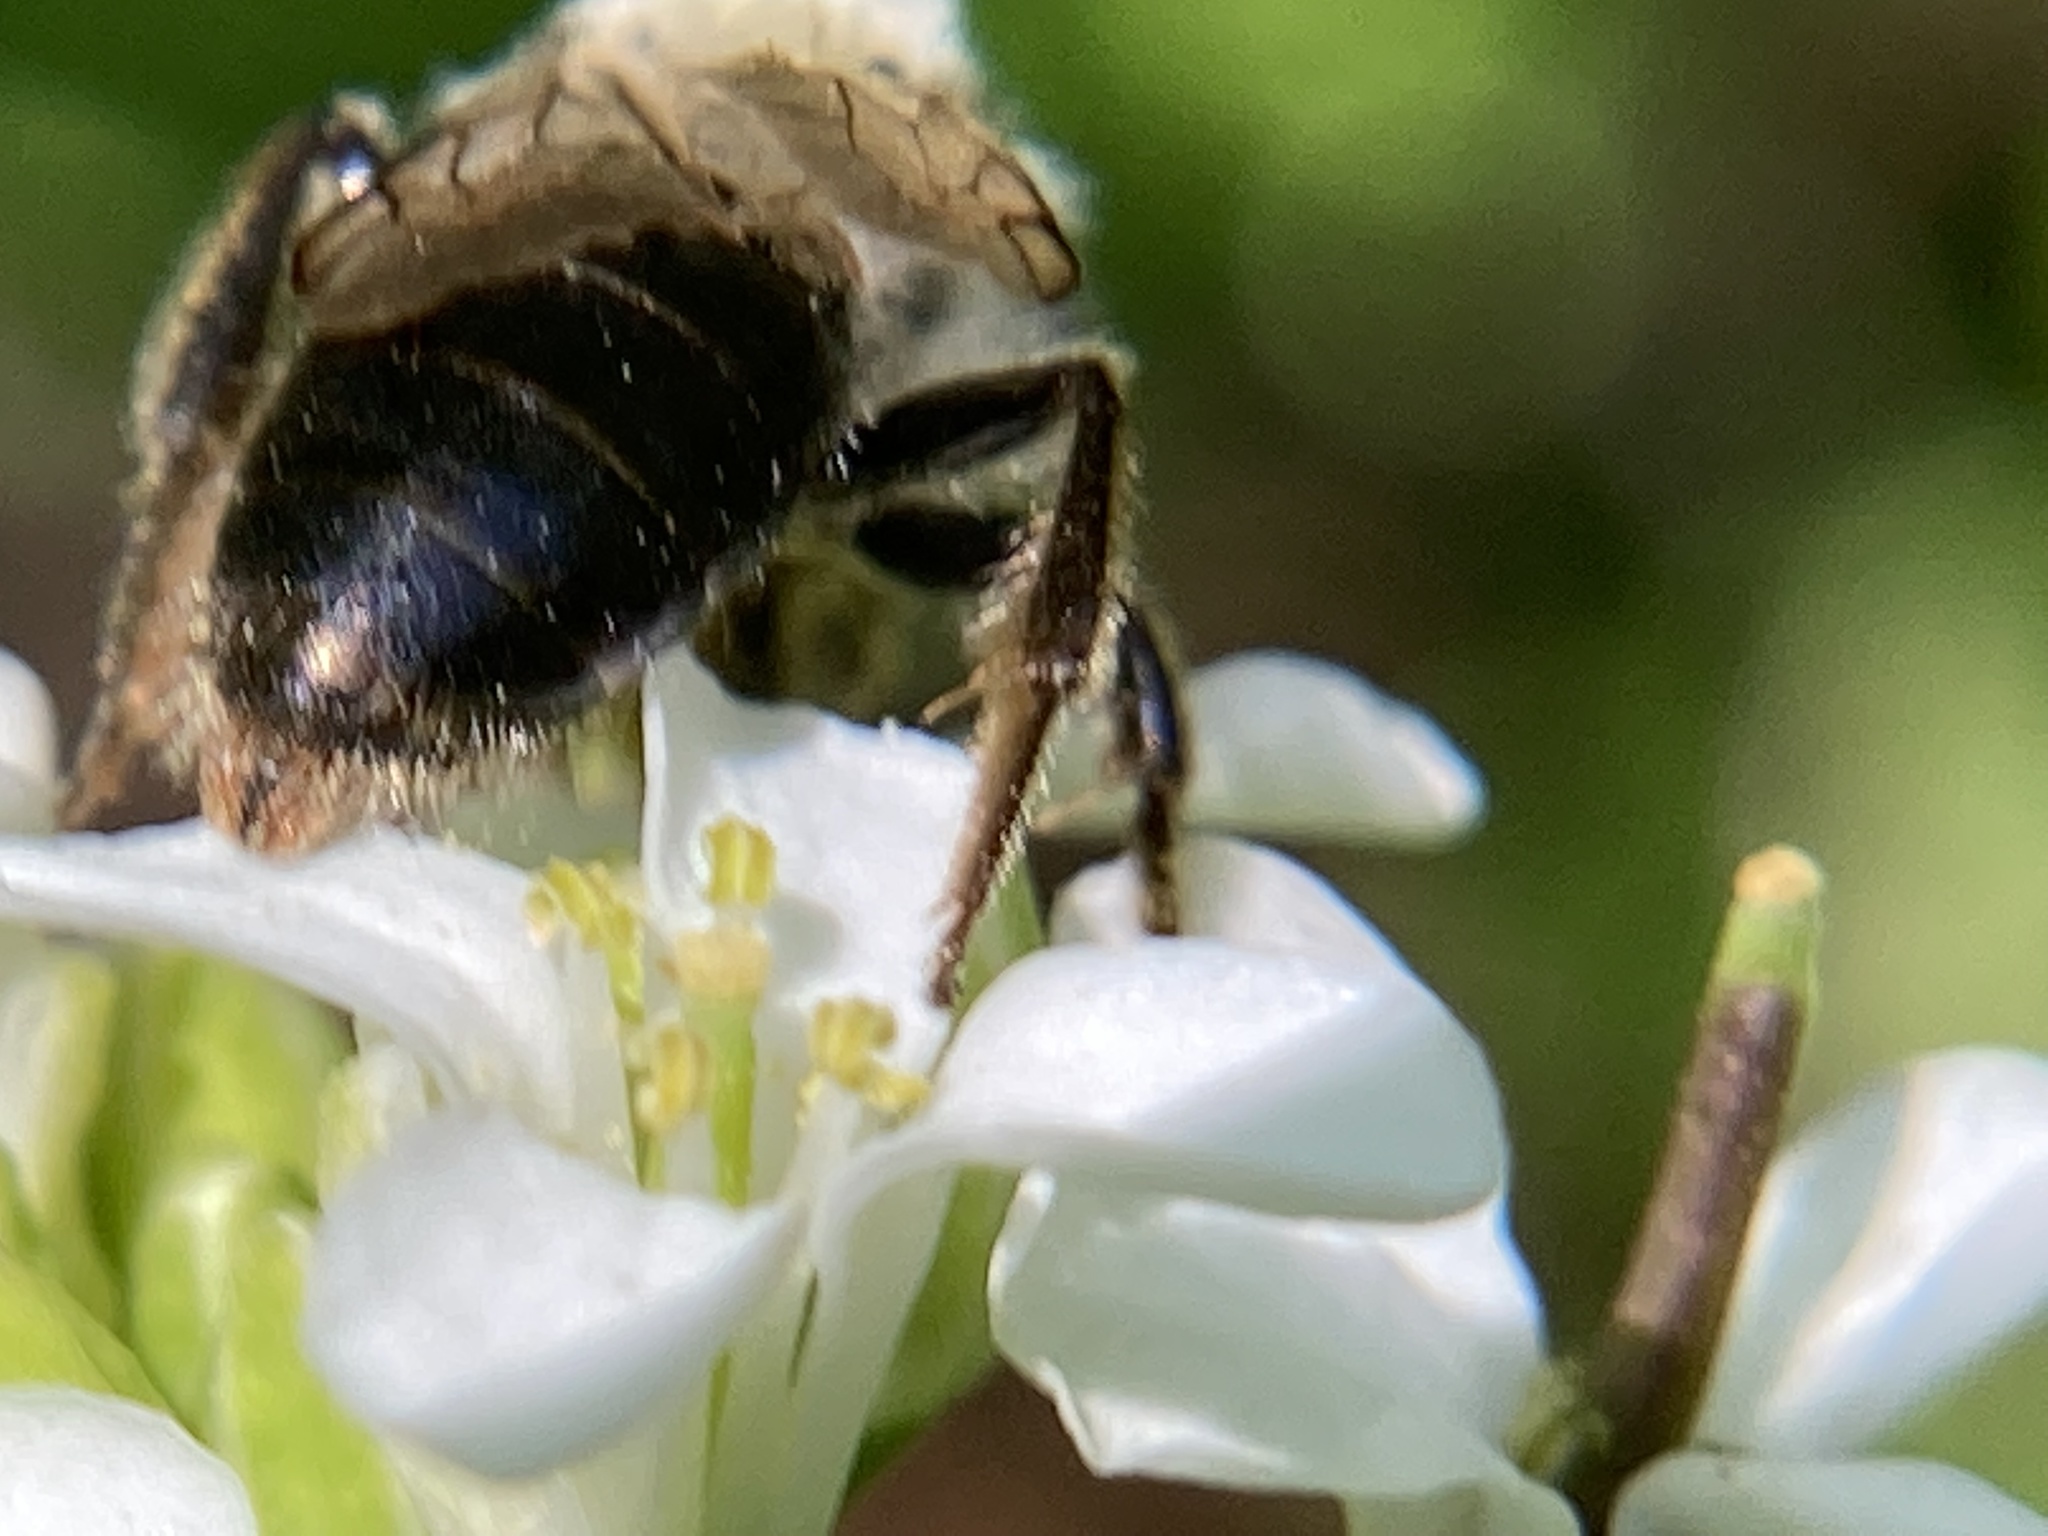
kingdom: Animalia
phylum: Arthropoda
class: Insecta
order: Hymenoptera
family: Andrenidae
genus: Andrena
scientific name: Andrena
